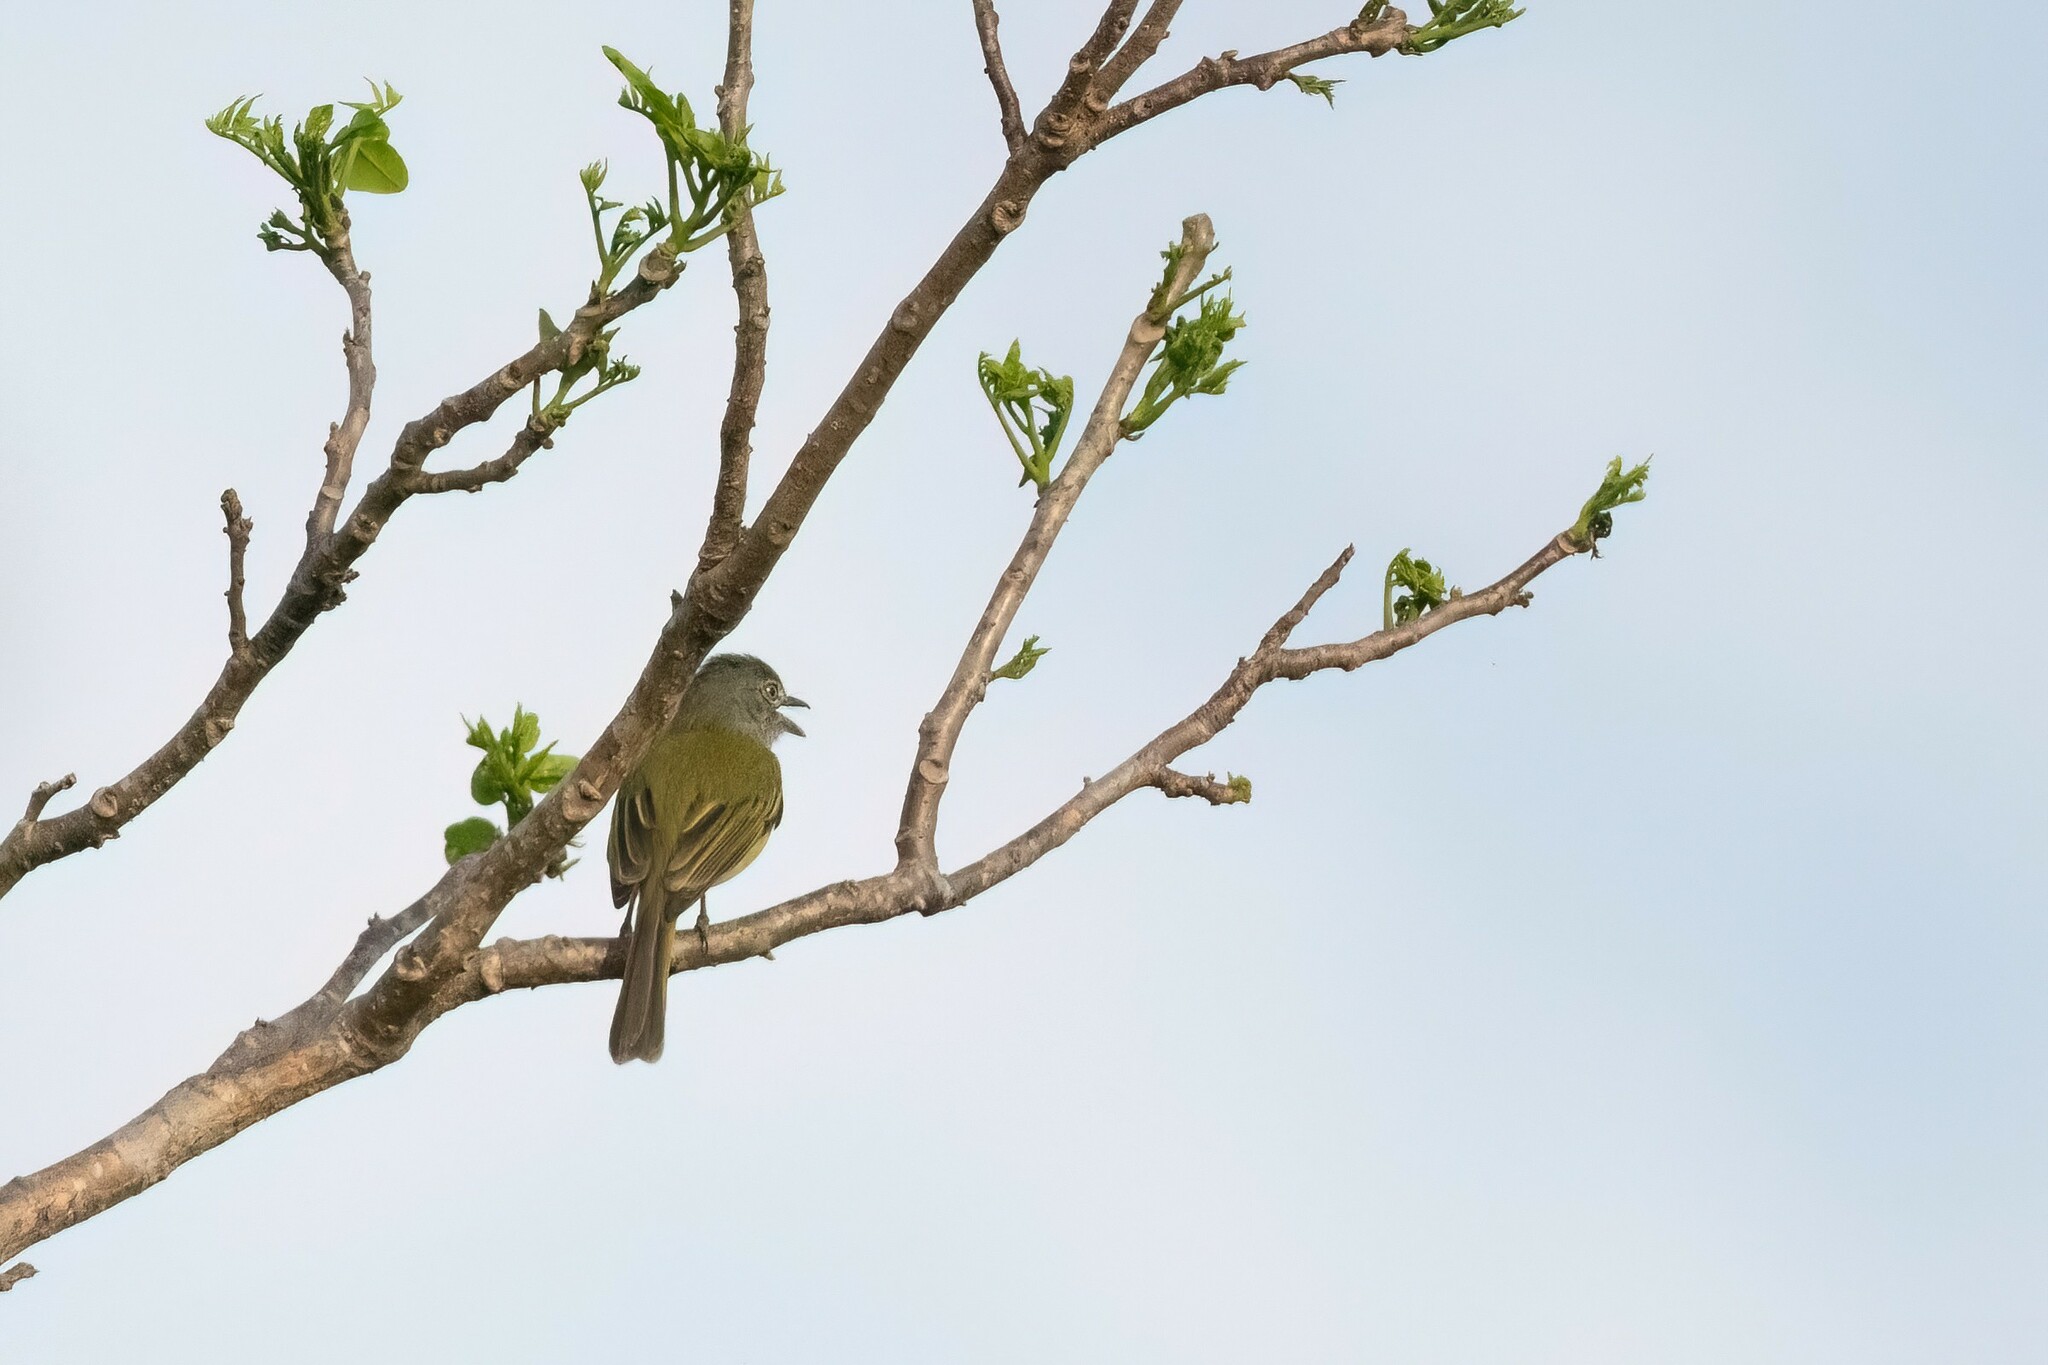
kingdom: Animalia
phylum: Chordata
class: Aves
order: Passeriformes
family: Tyrannidae
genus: Tolmomyias
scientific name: Tolmomyias sulphurescens
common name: Yellow-olive flycatcher
